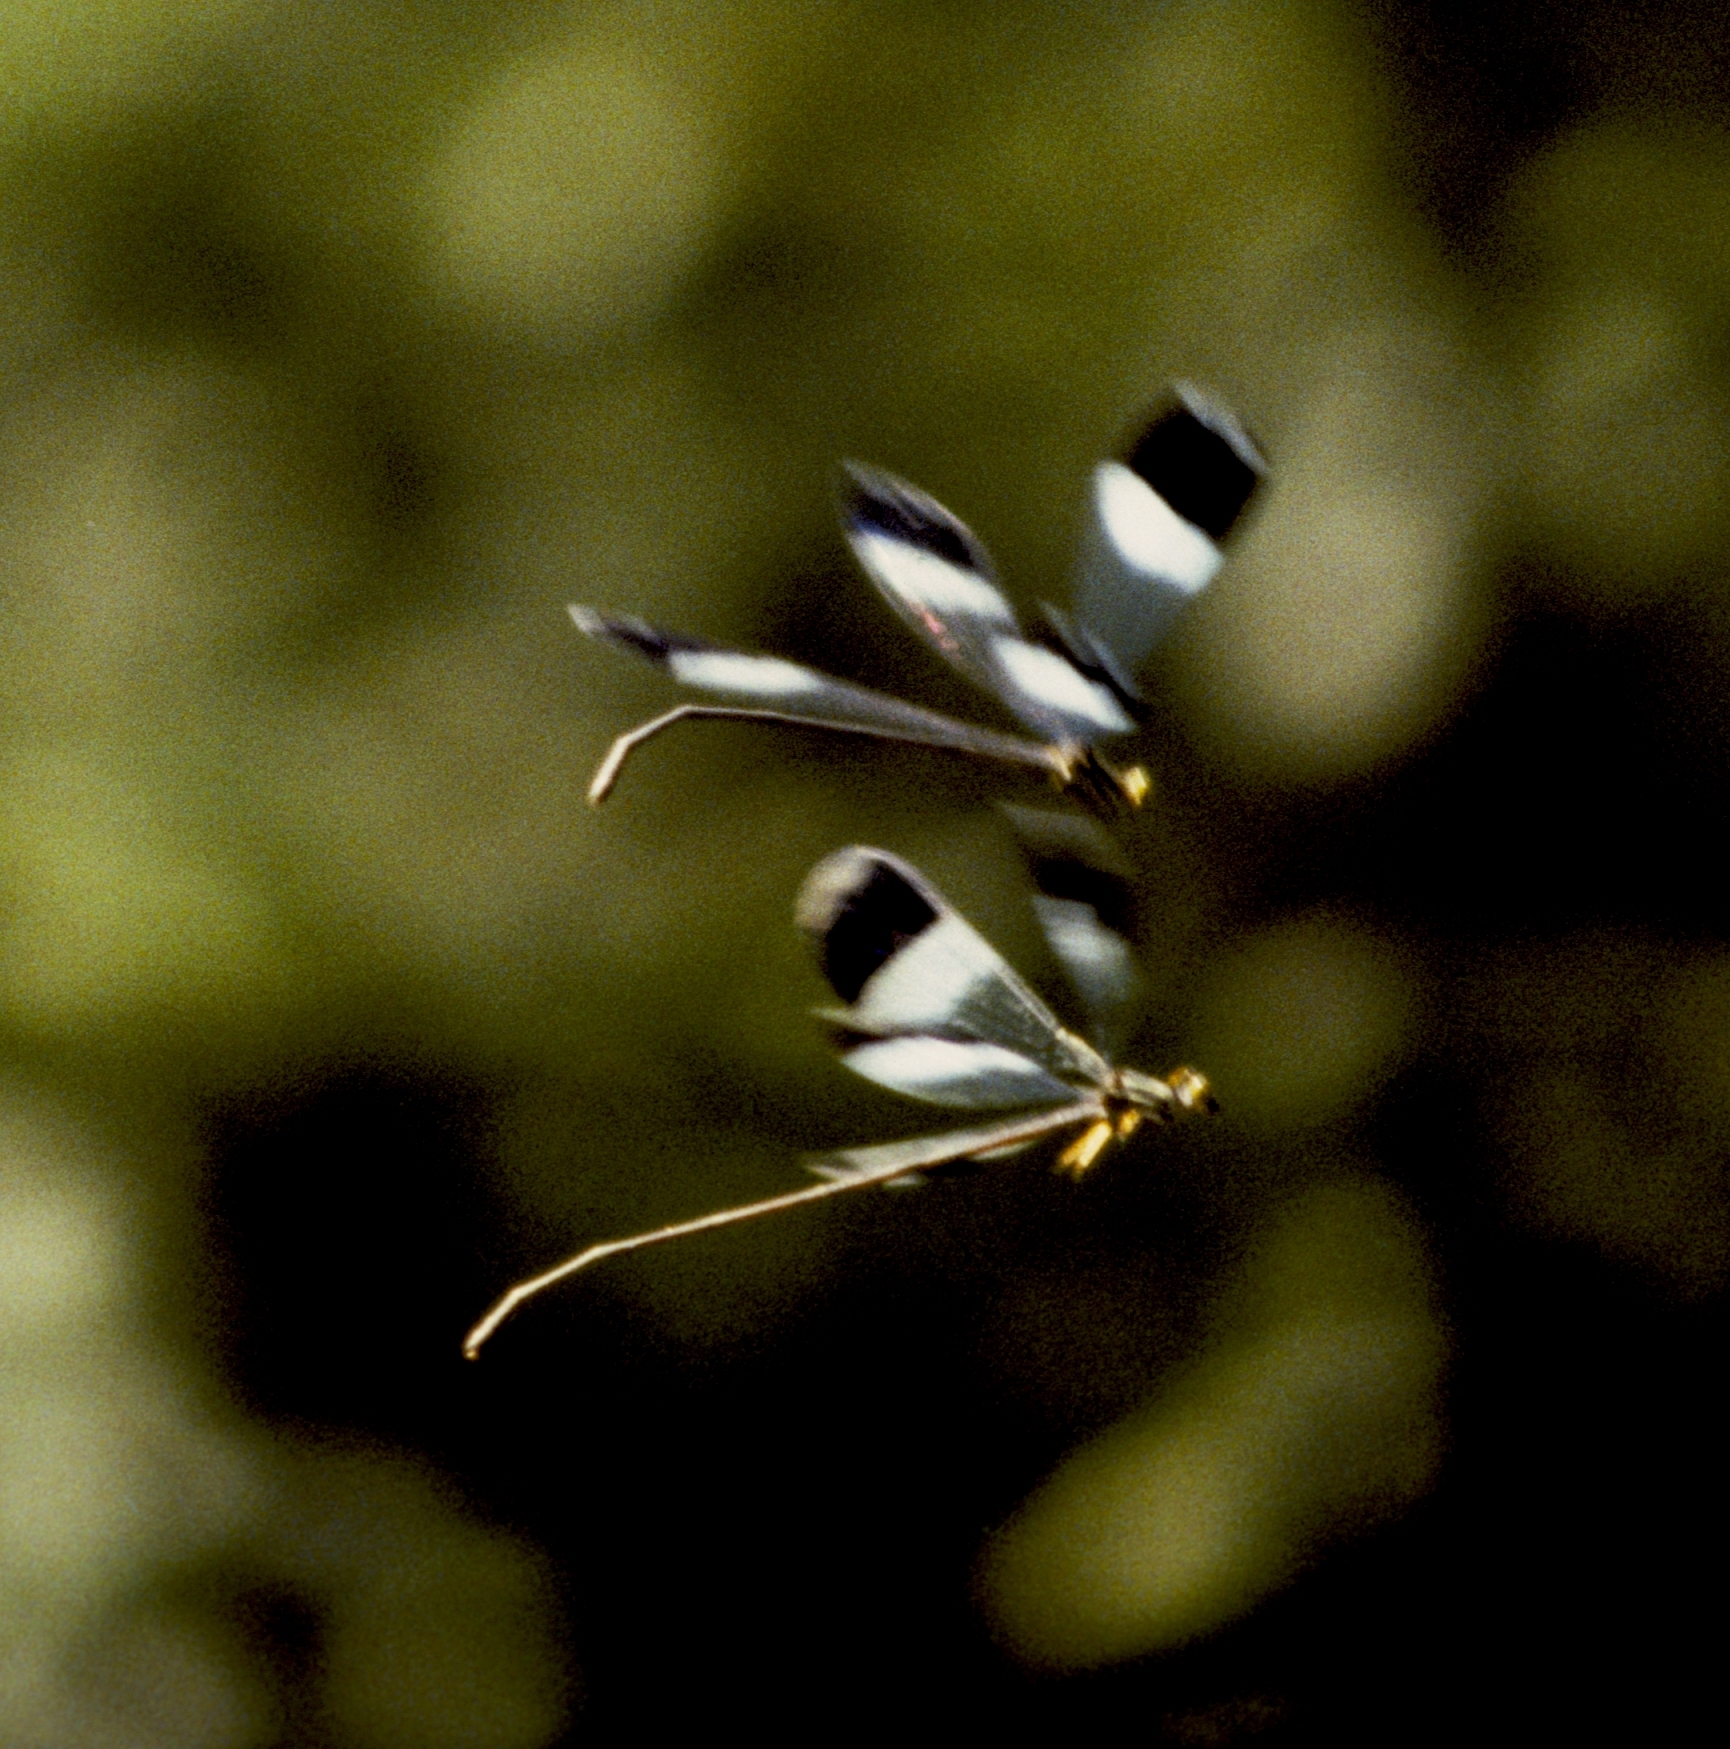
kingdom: Animalia
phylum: Arthropoda
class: Insecta
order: Odonata
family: Coenagrionidae
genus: Megaloprepus
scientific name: Megaloprepus caerulatus
